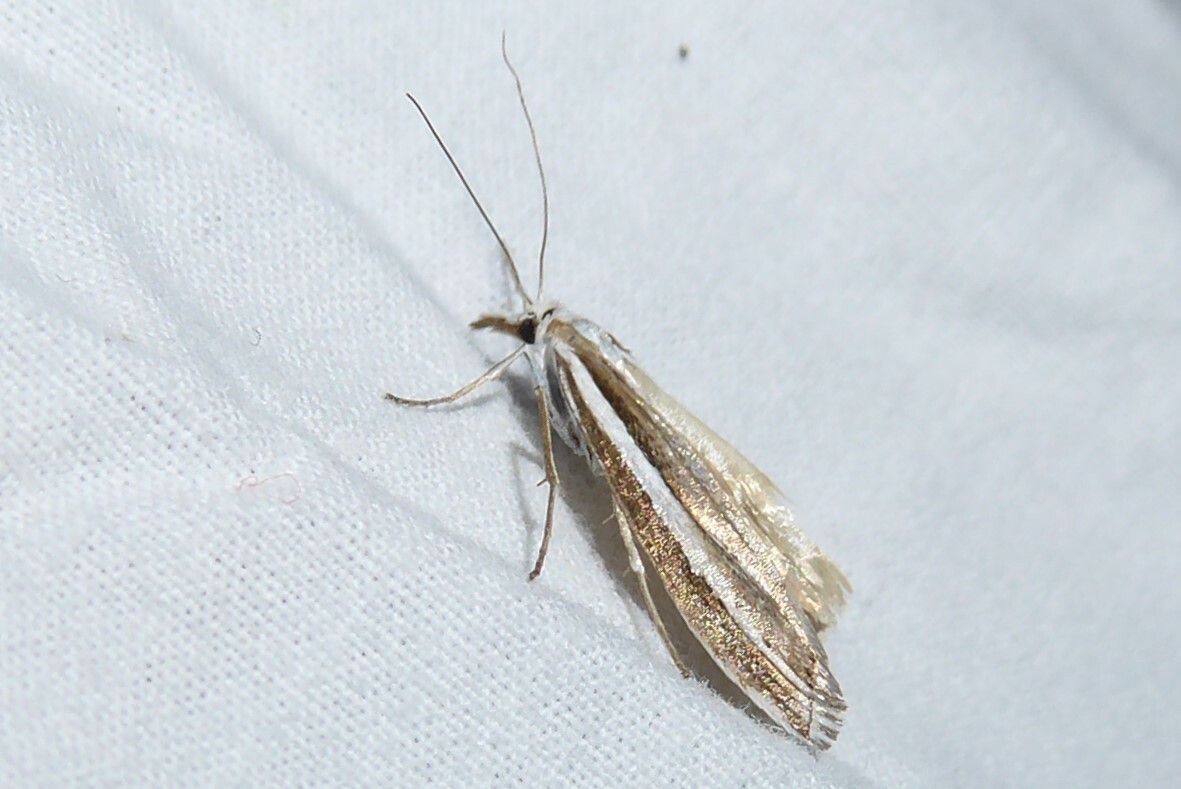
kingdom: Animalia
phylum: Arthropoda
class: Insecta
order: Lepidoptera
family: Crambidae
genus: Orocrambus
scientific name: Orocrambus vittellus
